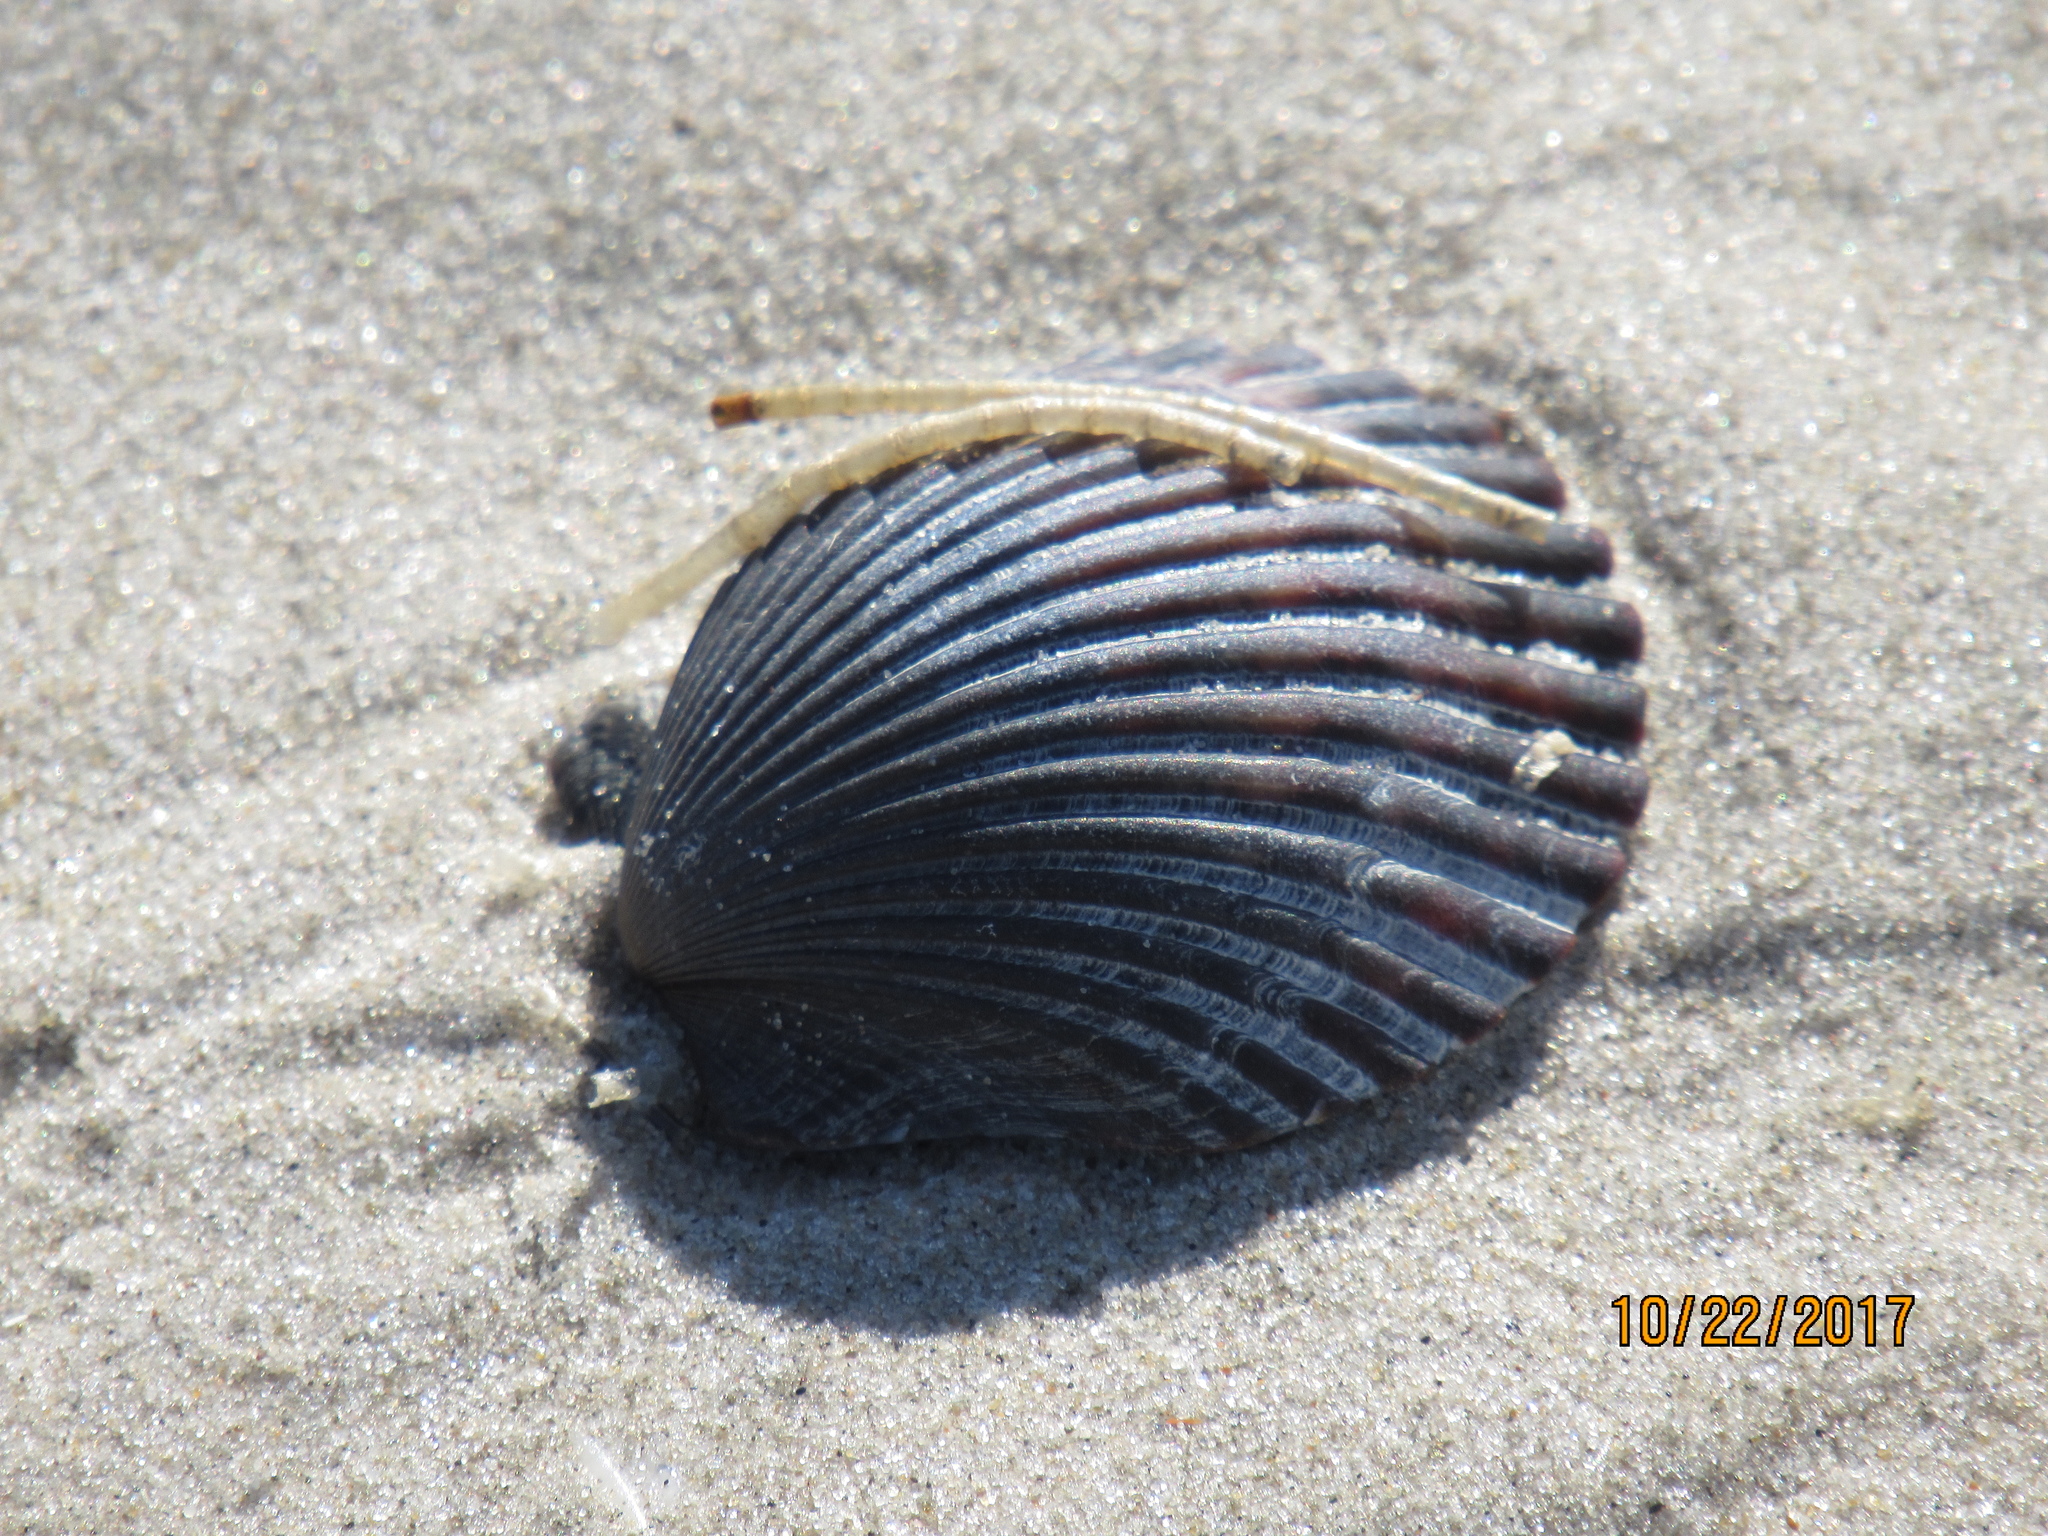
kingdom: Animalia
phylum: Mollusca
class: Bivalvia
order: Pectinida
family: Pectinidae
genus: Argopecten
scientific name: Argopecten irradians
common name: Atlantic bay scallop
